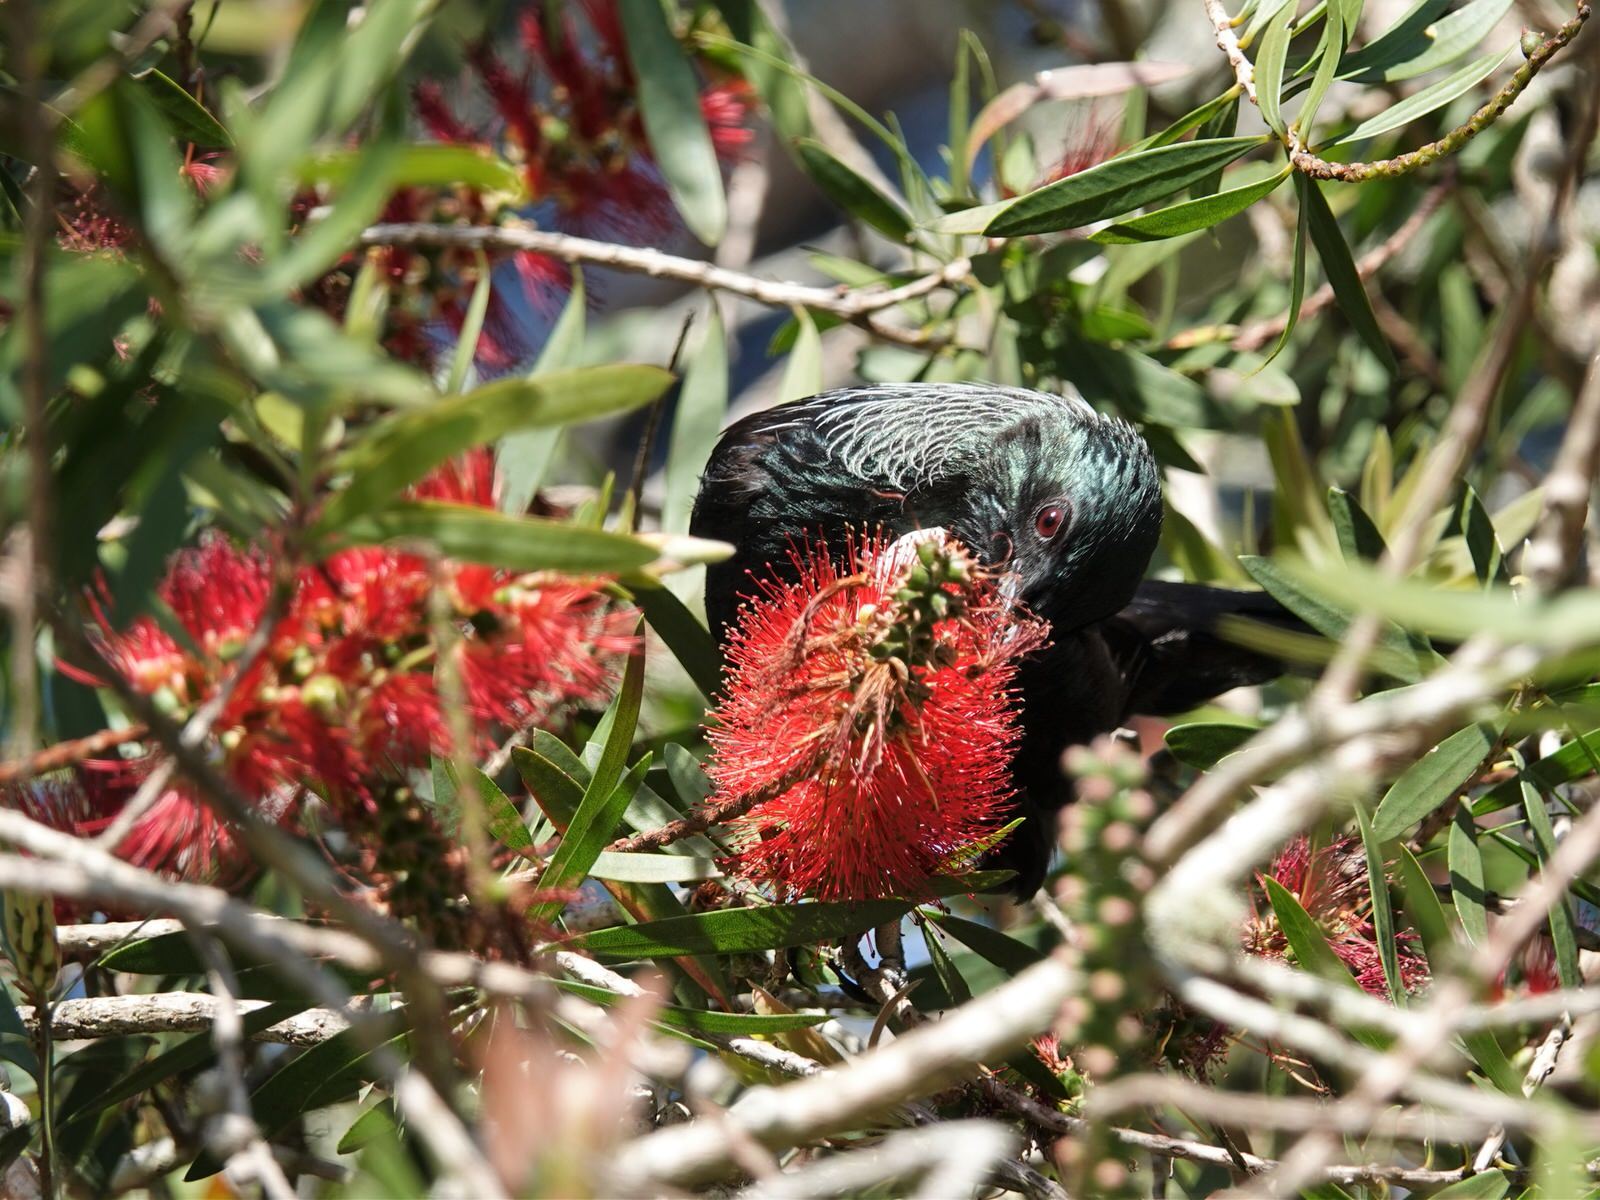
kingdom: Animalia
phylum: Chordata
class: Aves
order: Passeriformes
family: Meliphagidae
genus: Prosthemadera
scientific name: Prosthemadera novaeseelandiae
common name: Tui
